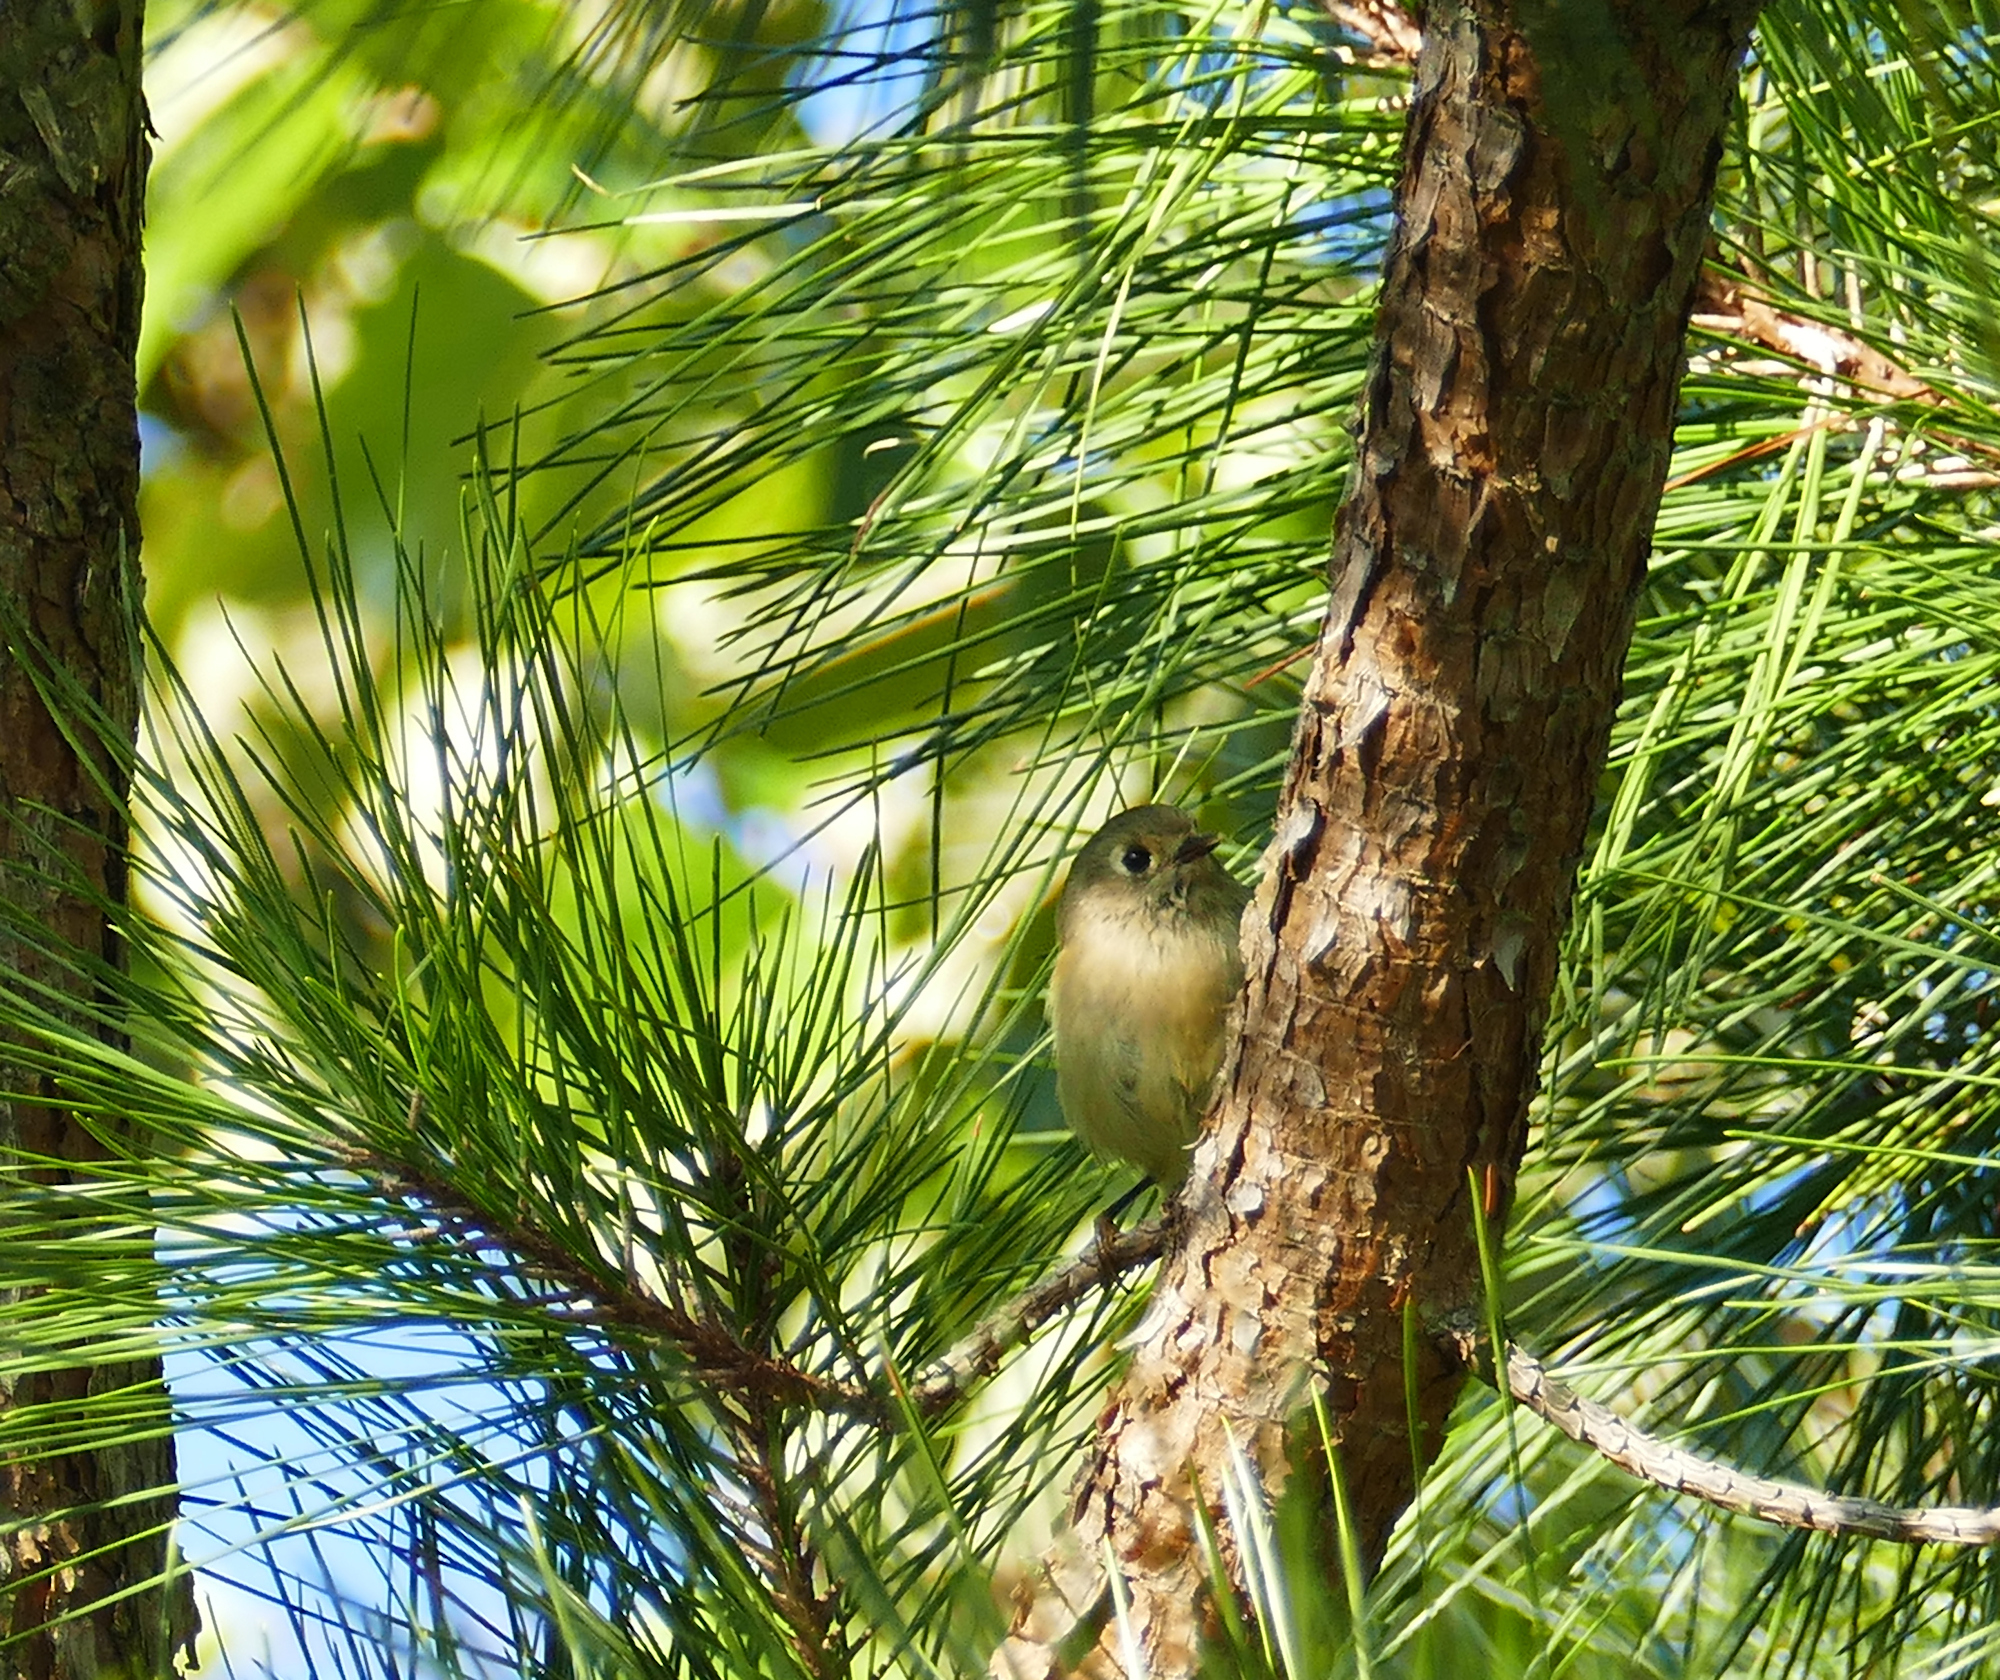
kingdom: Animalia
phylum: Chordata
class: Aves
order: Passeriformes
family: Regulidae
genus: Regulus
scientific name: Regulus calendula
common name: Ruby-crowned kinglet
